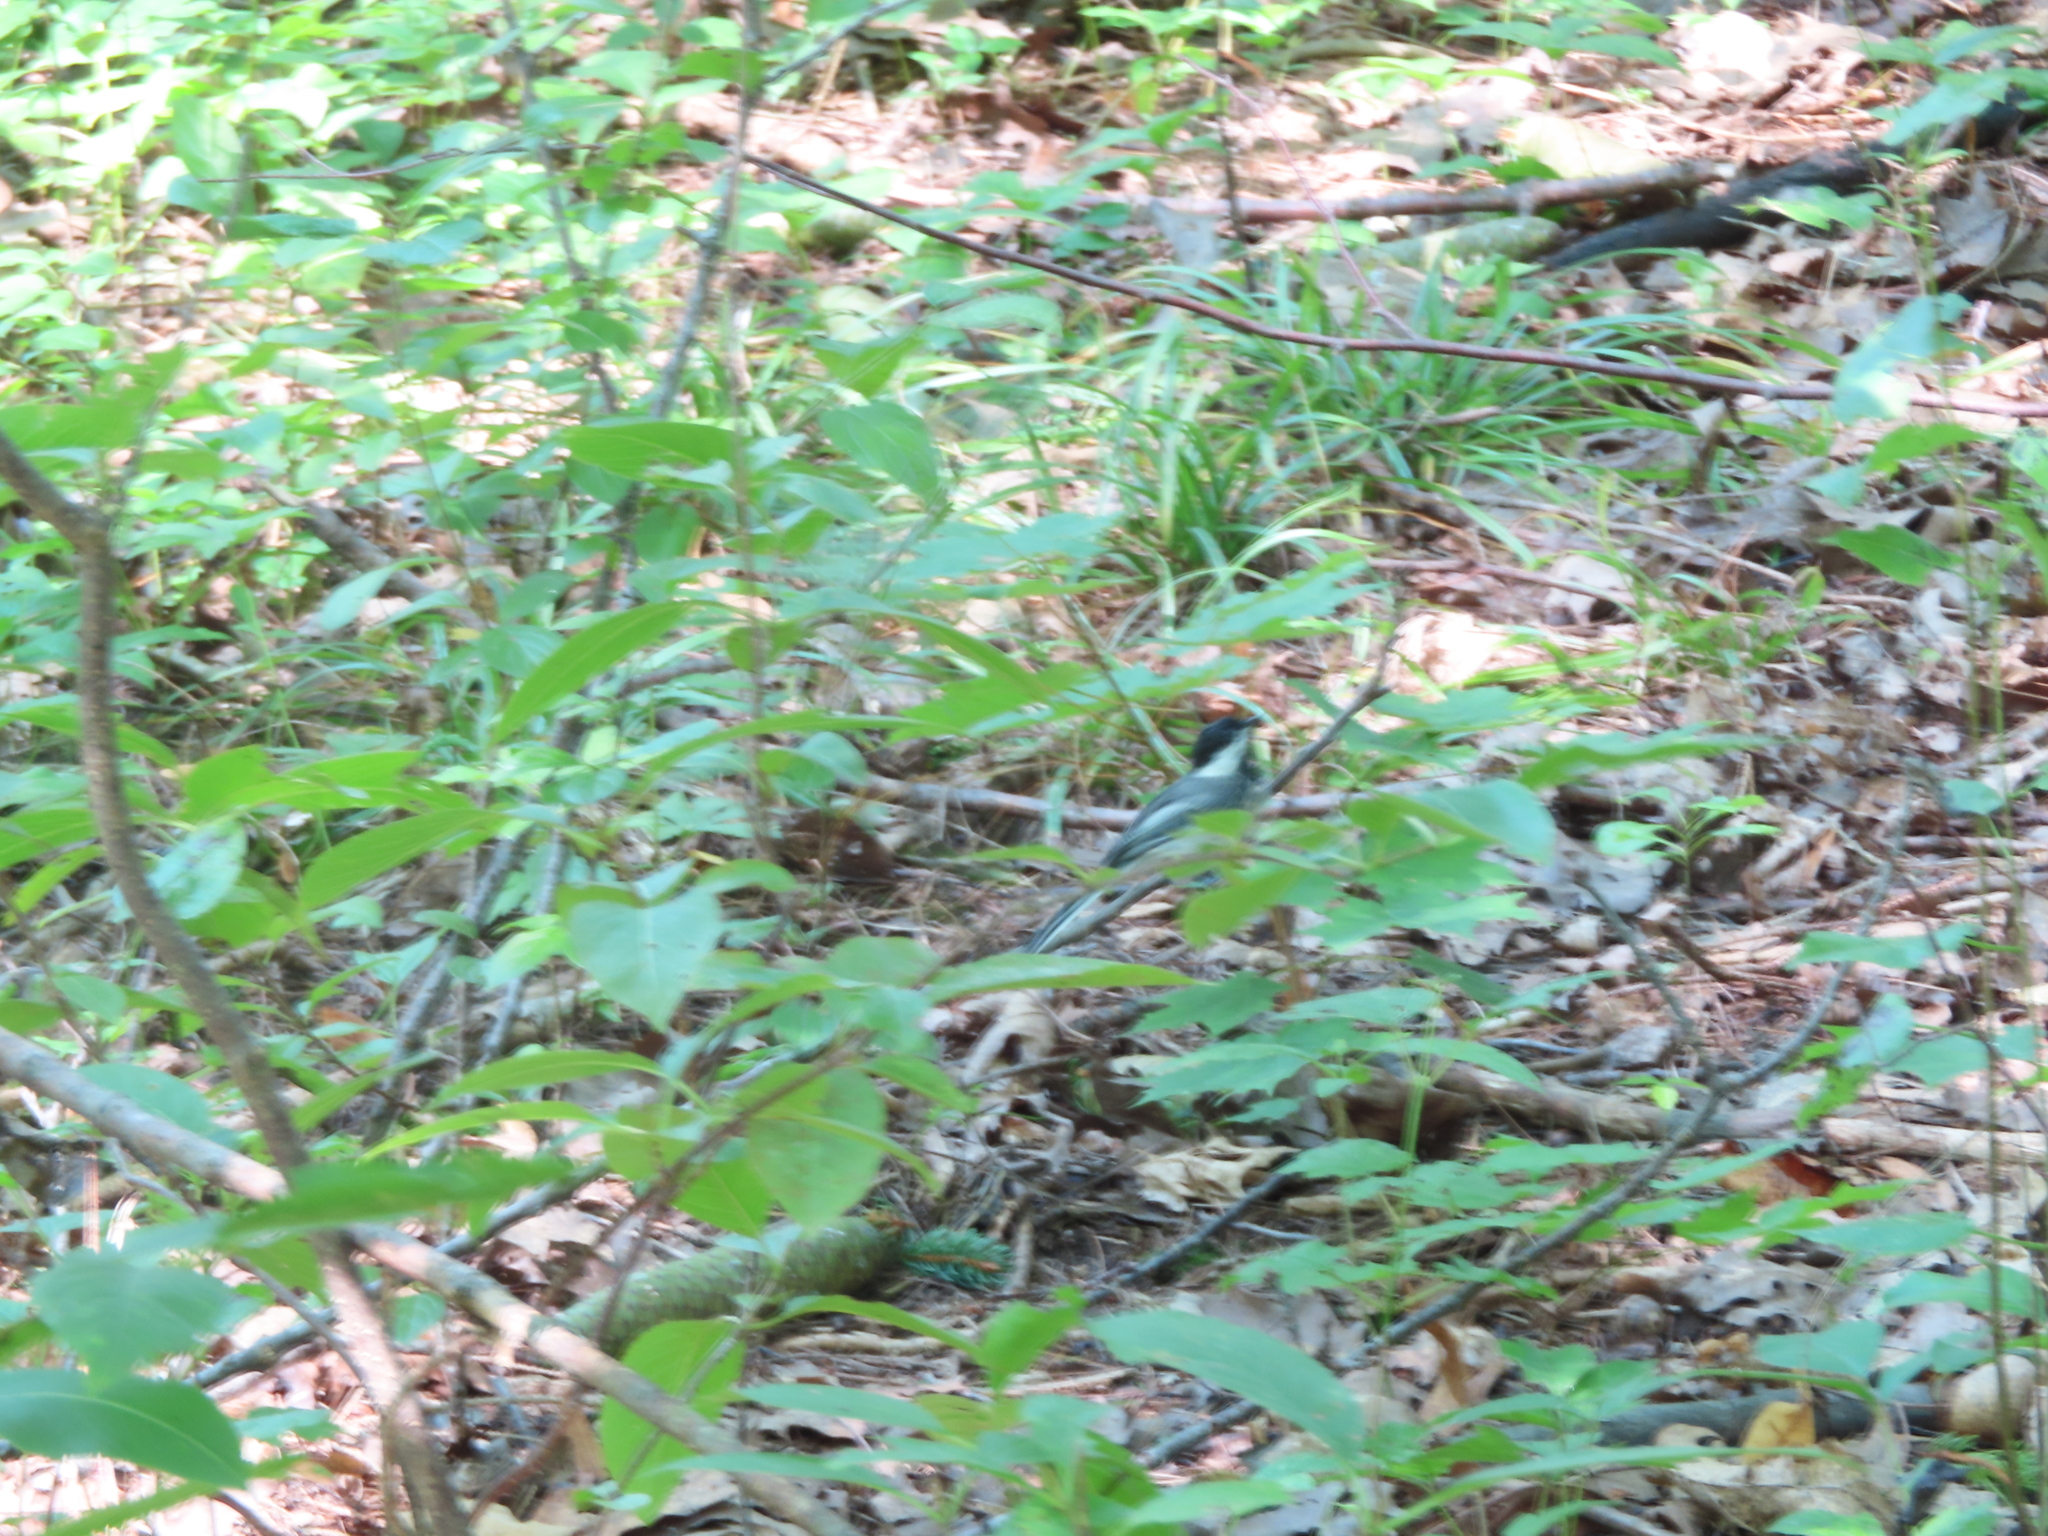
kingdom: Animalia
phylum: Chordata
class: Aves
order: Passeriformes
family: Paridae
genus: Poecile
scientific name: Poecile atricapillus
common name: Black-capped chickadee
